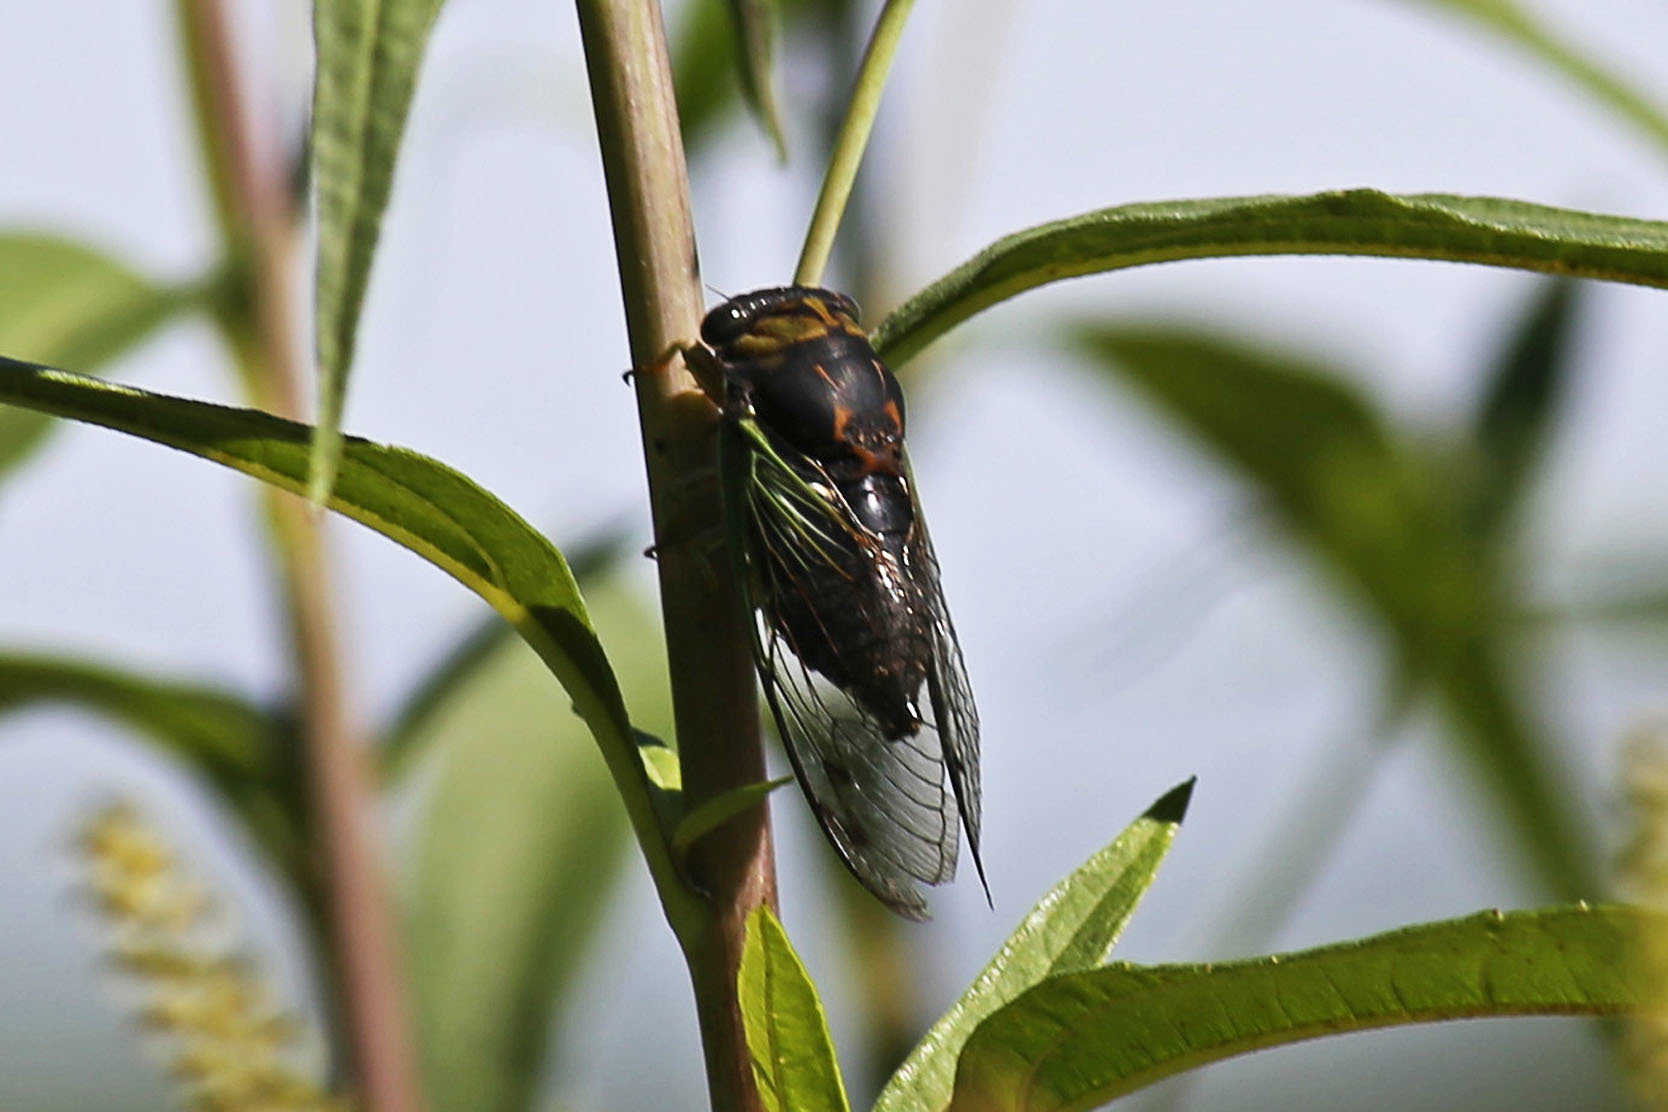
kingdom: Animalia
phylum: Arthropoda
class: Insecta
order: Hemiptera
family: Cicadidae
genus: Neotibicen
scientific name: Neotibicen tibicen
